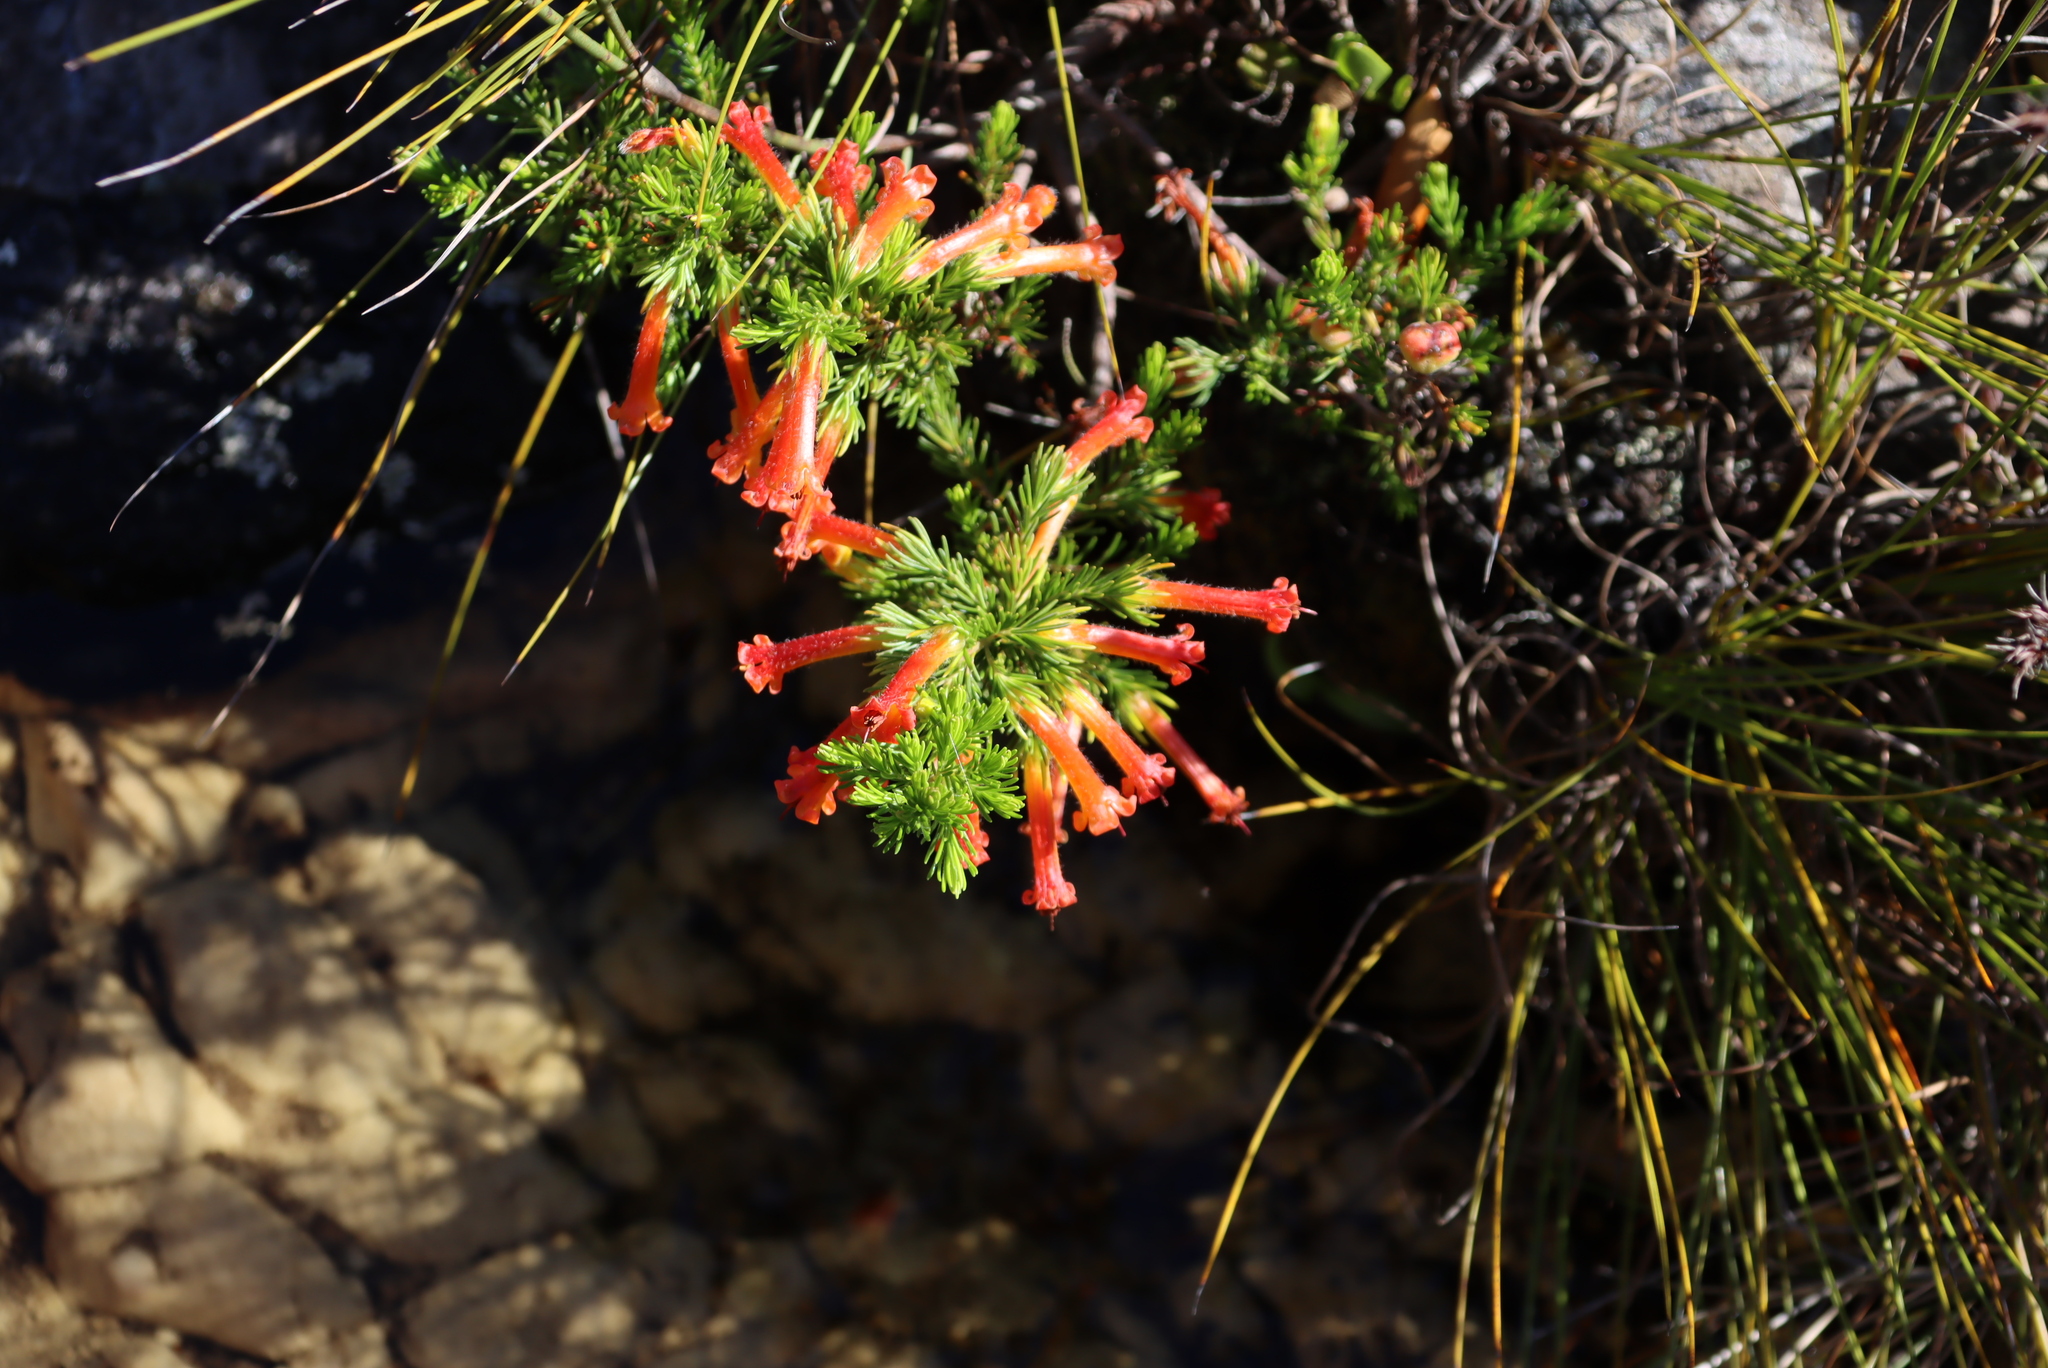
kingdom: Plantae
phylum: Tracheophyta
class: Magnoliopsida
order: Ericales
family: Ericaceae
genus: Erica
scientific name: Erica grandiflora
